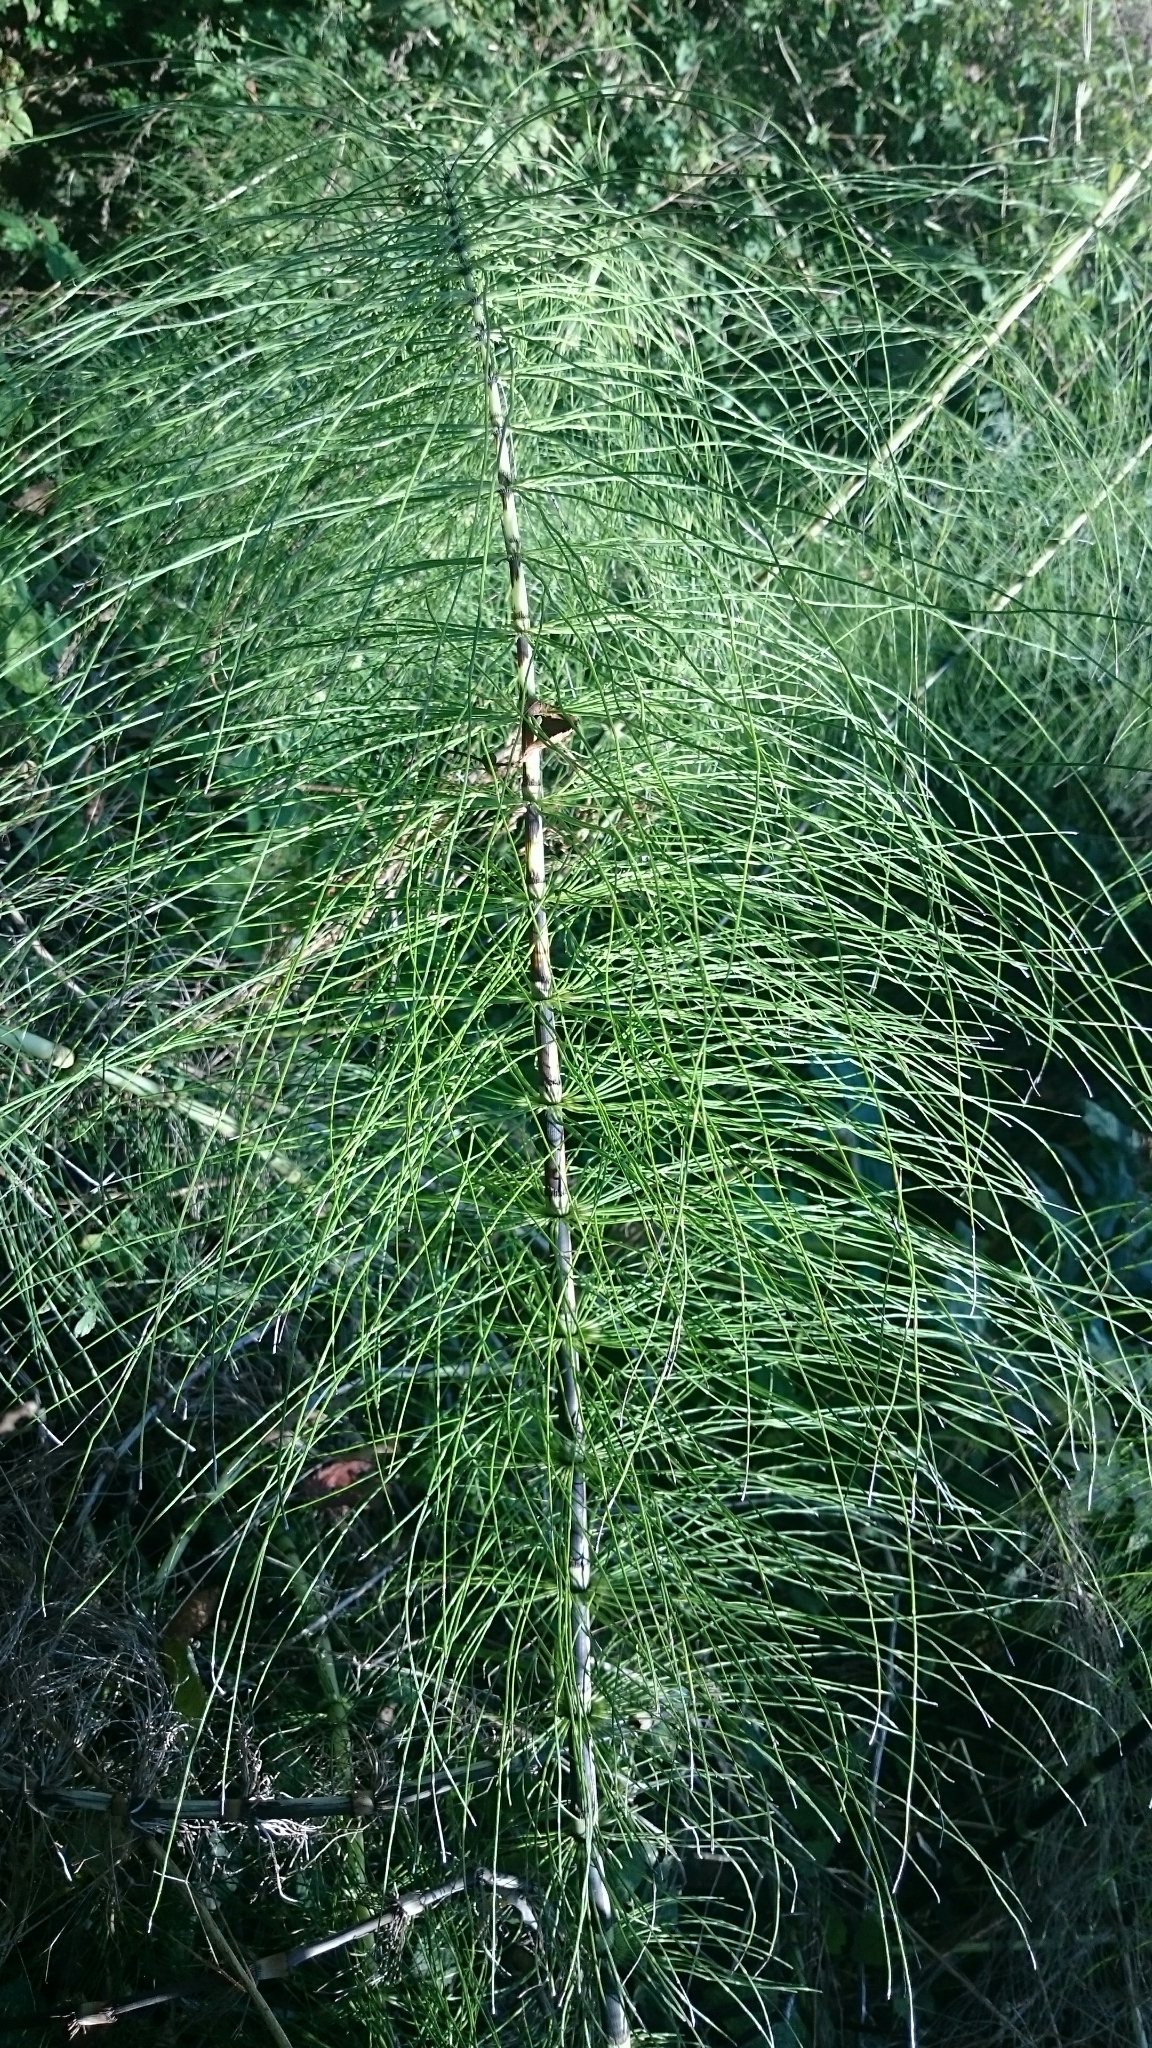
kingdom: Plantae
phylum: Tracheophyta
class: Polypodiopsida
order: Equisetales
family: Equisetaceae
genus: Equisetum
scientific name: Equisetum telmateia
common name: Great horsetail
